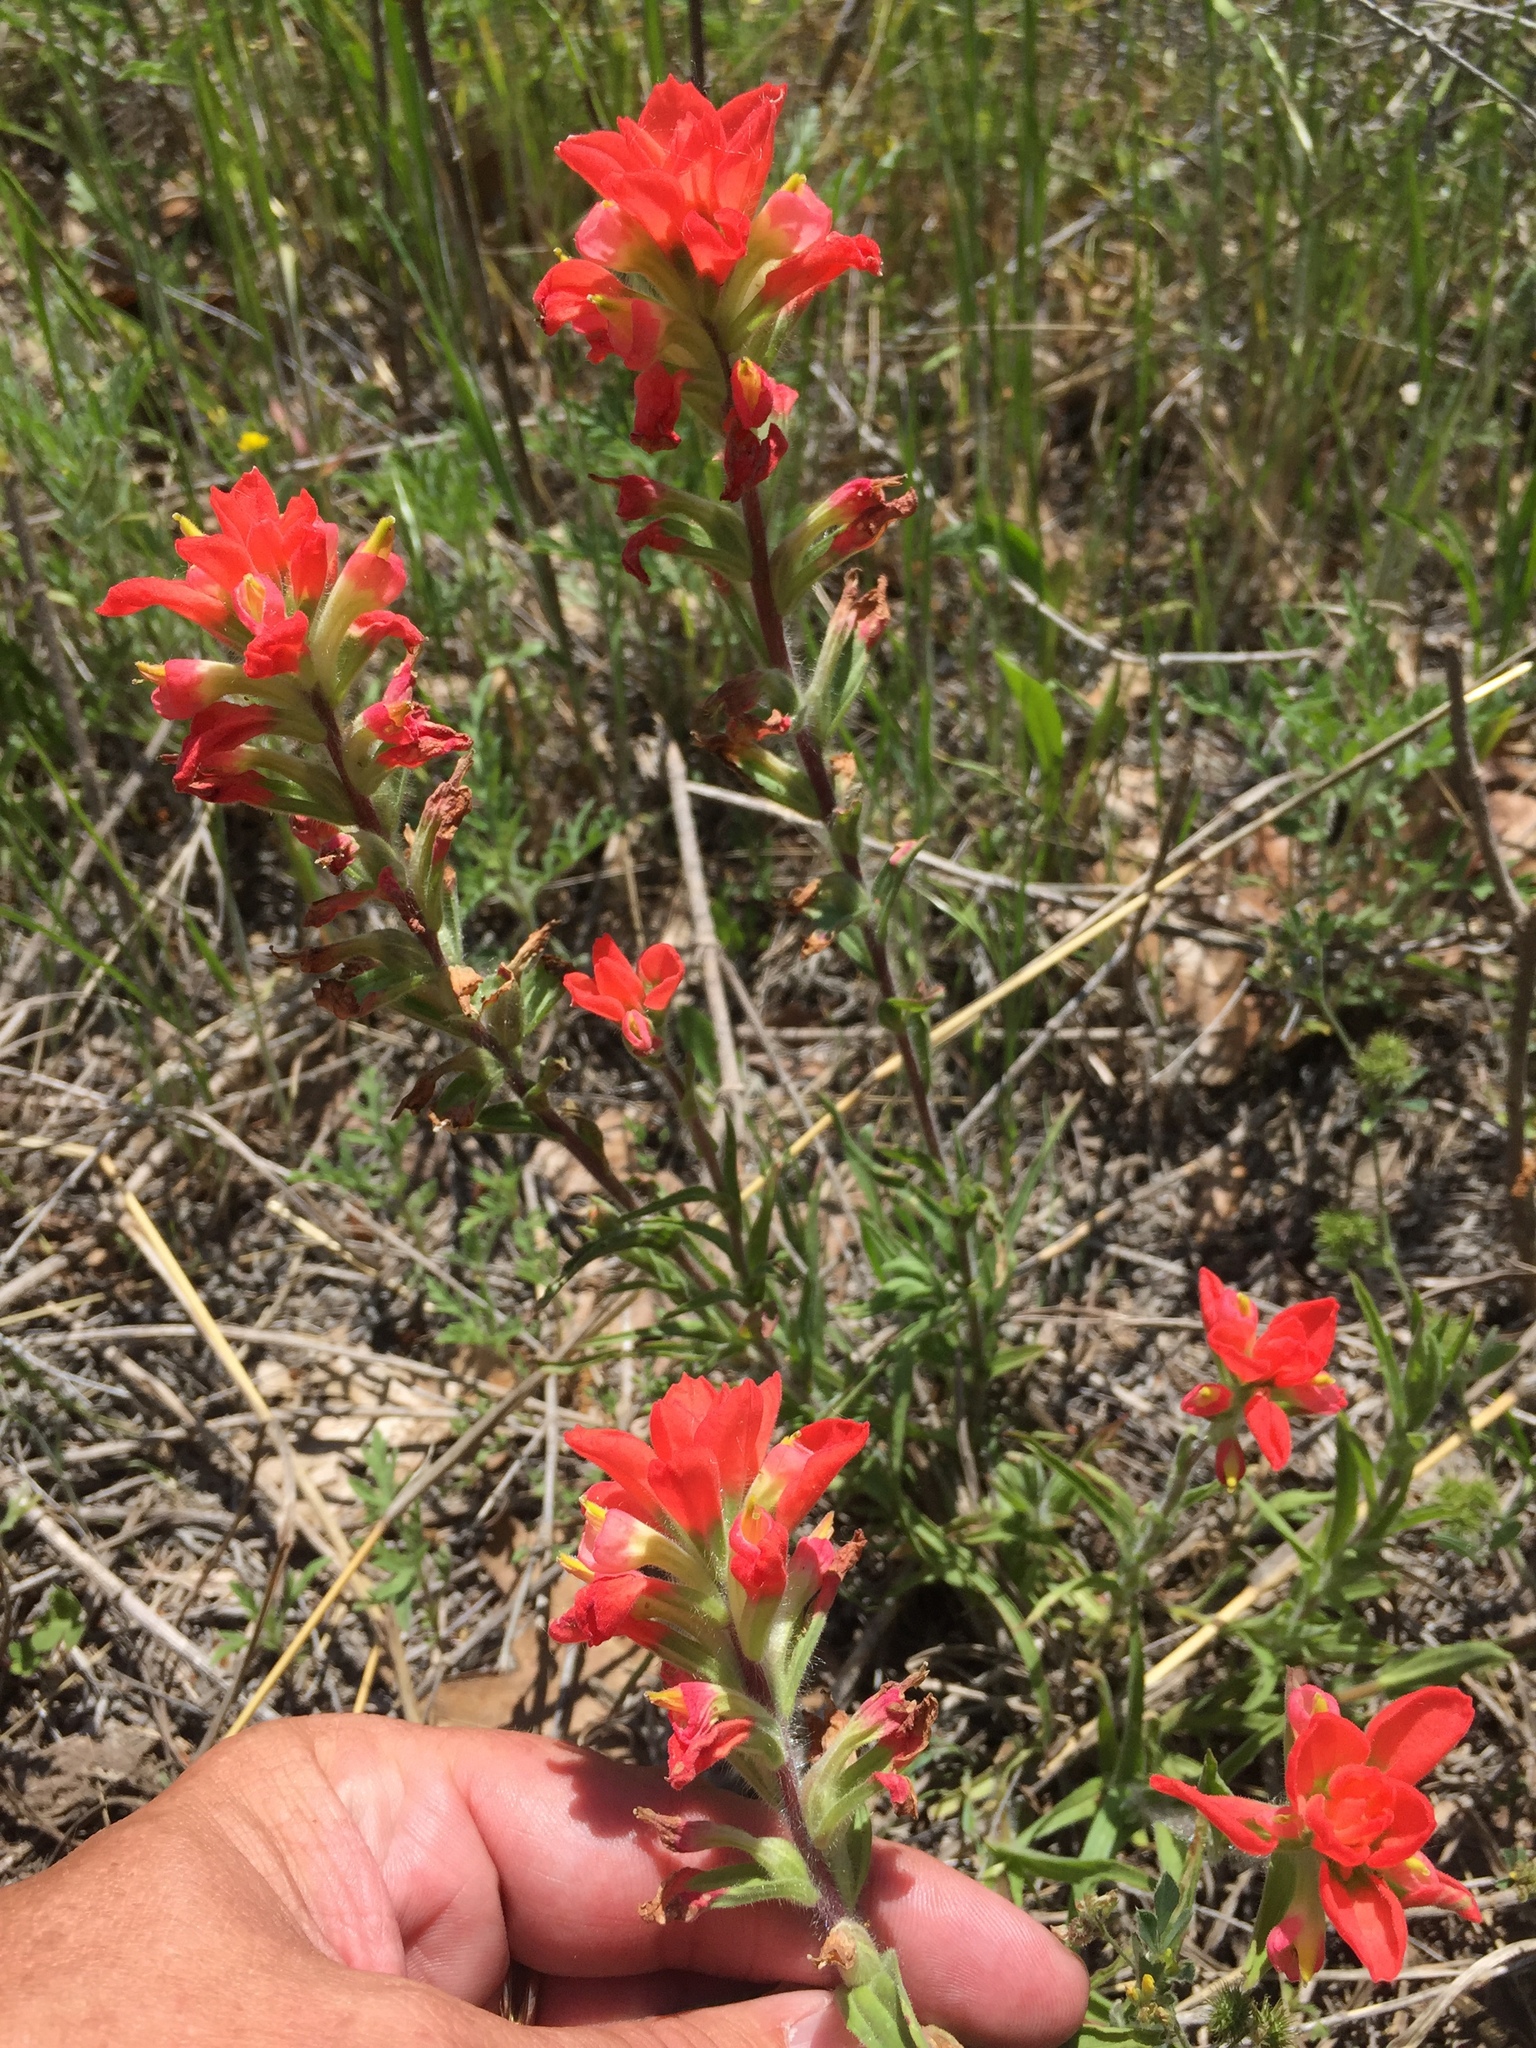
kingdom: Plantae
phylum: Tracheophyta
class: Magnoliopsida
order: Lamiales
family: Orobanchaceae
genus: Castilleja
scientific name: Castilleja indivisa
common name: Texas paintbrush
